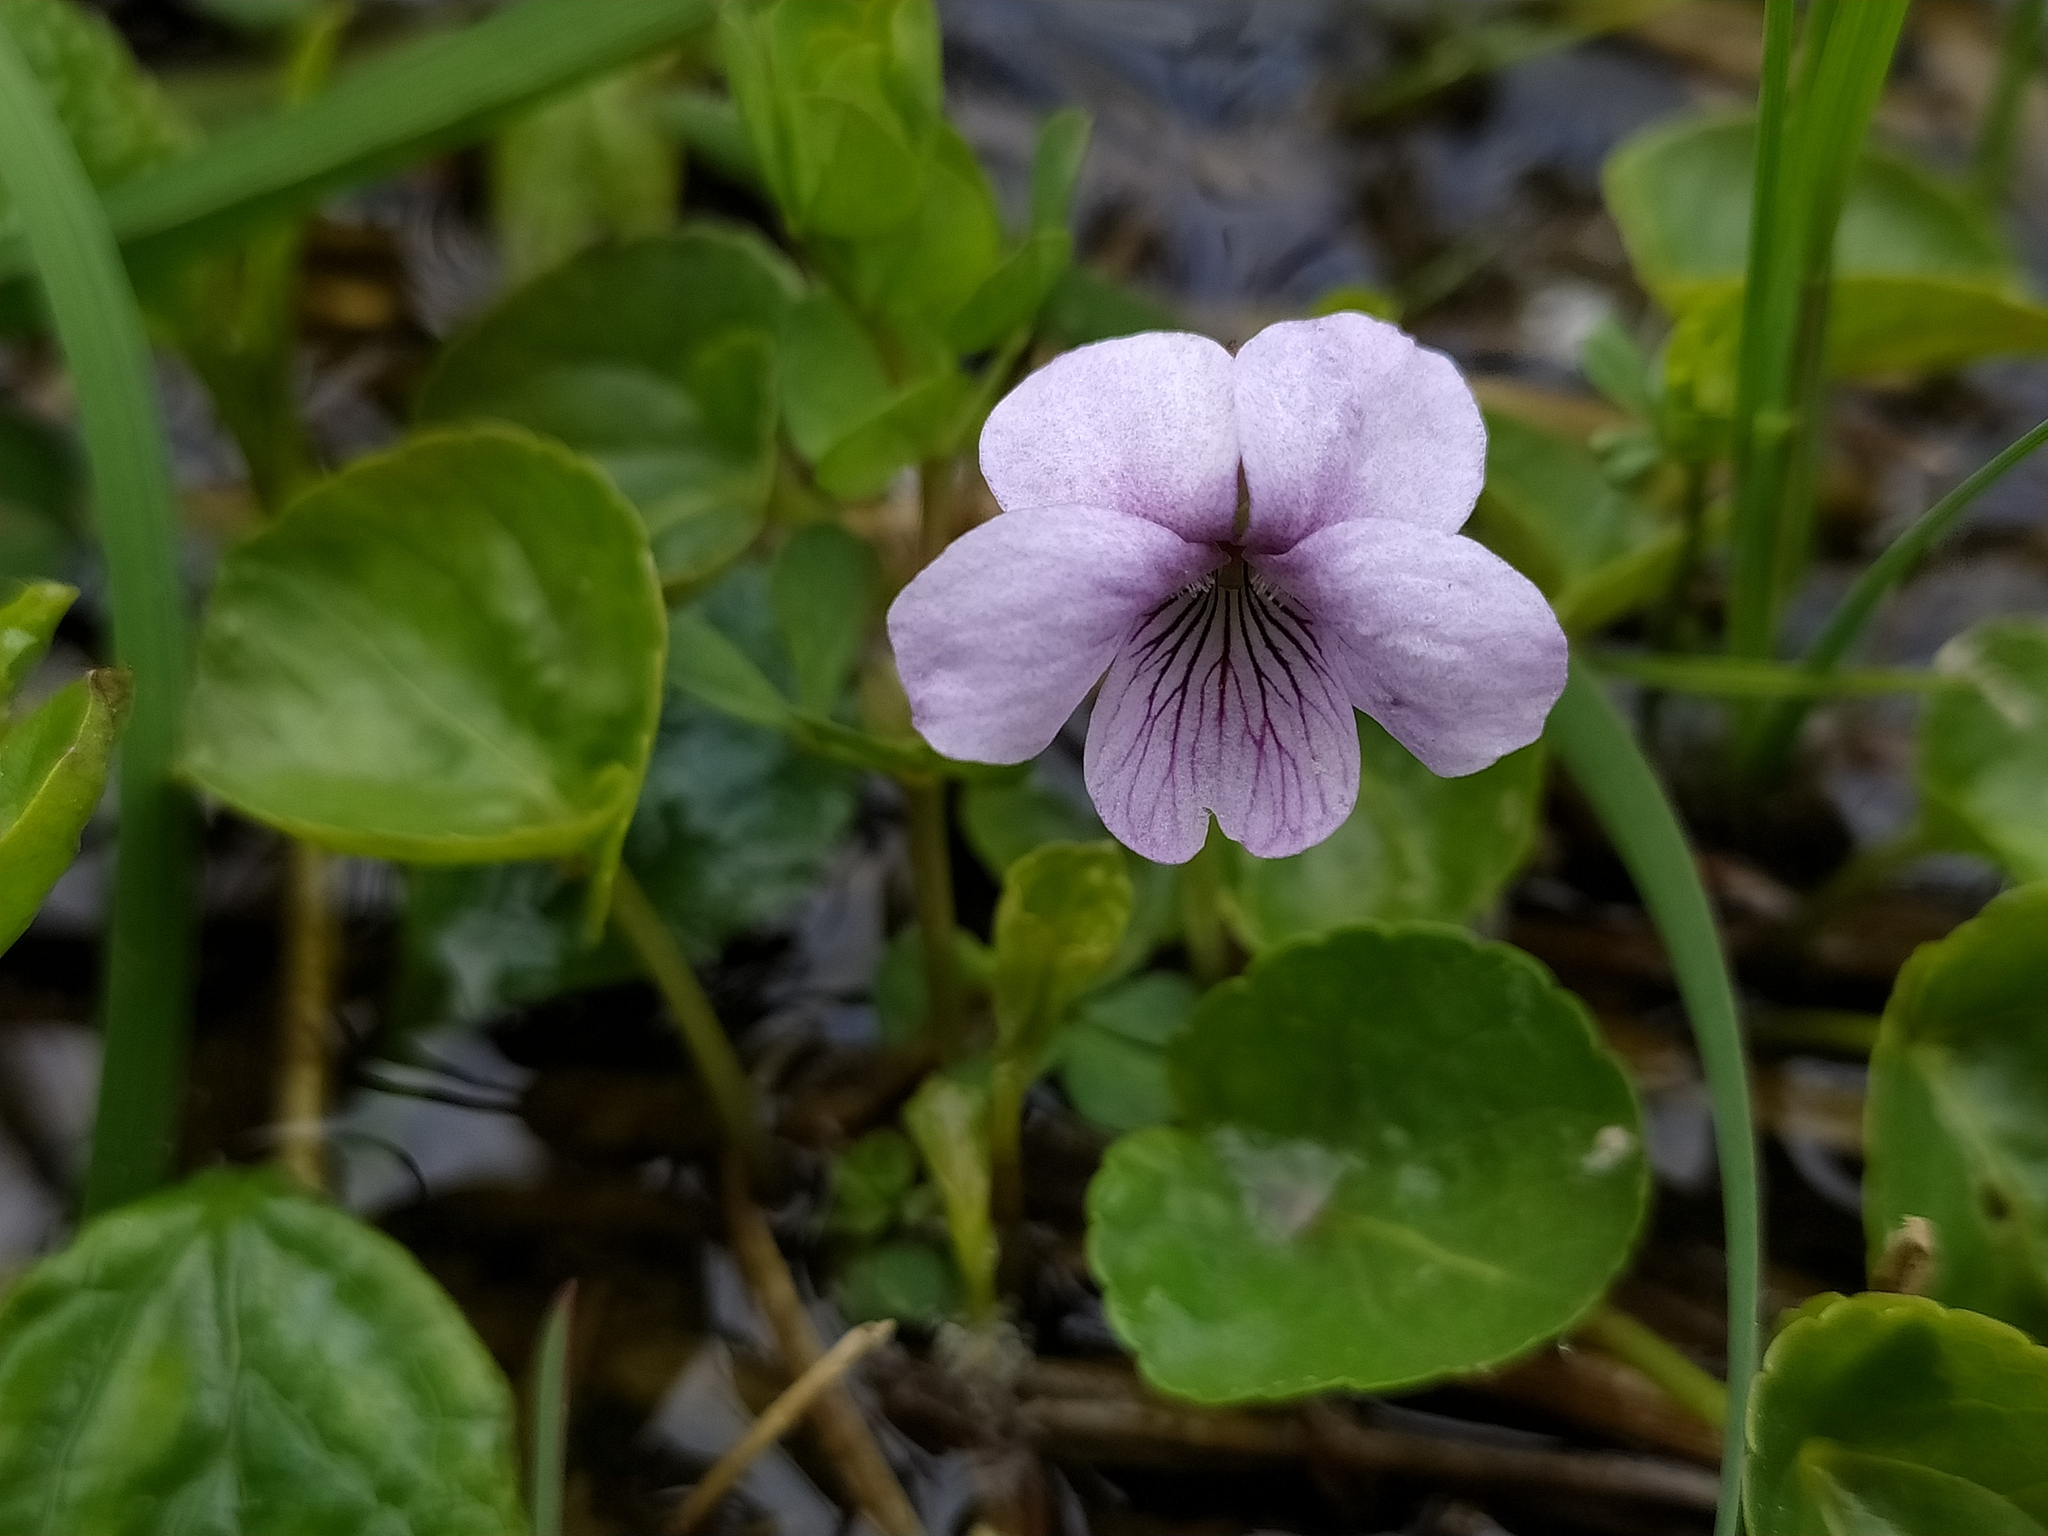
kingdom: Plantae
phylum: Tracheophyta
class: Magnoliopsida
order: Malpighiales
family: Violaceae
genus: Viola
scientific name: Viola palustris
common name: Marsh violet
